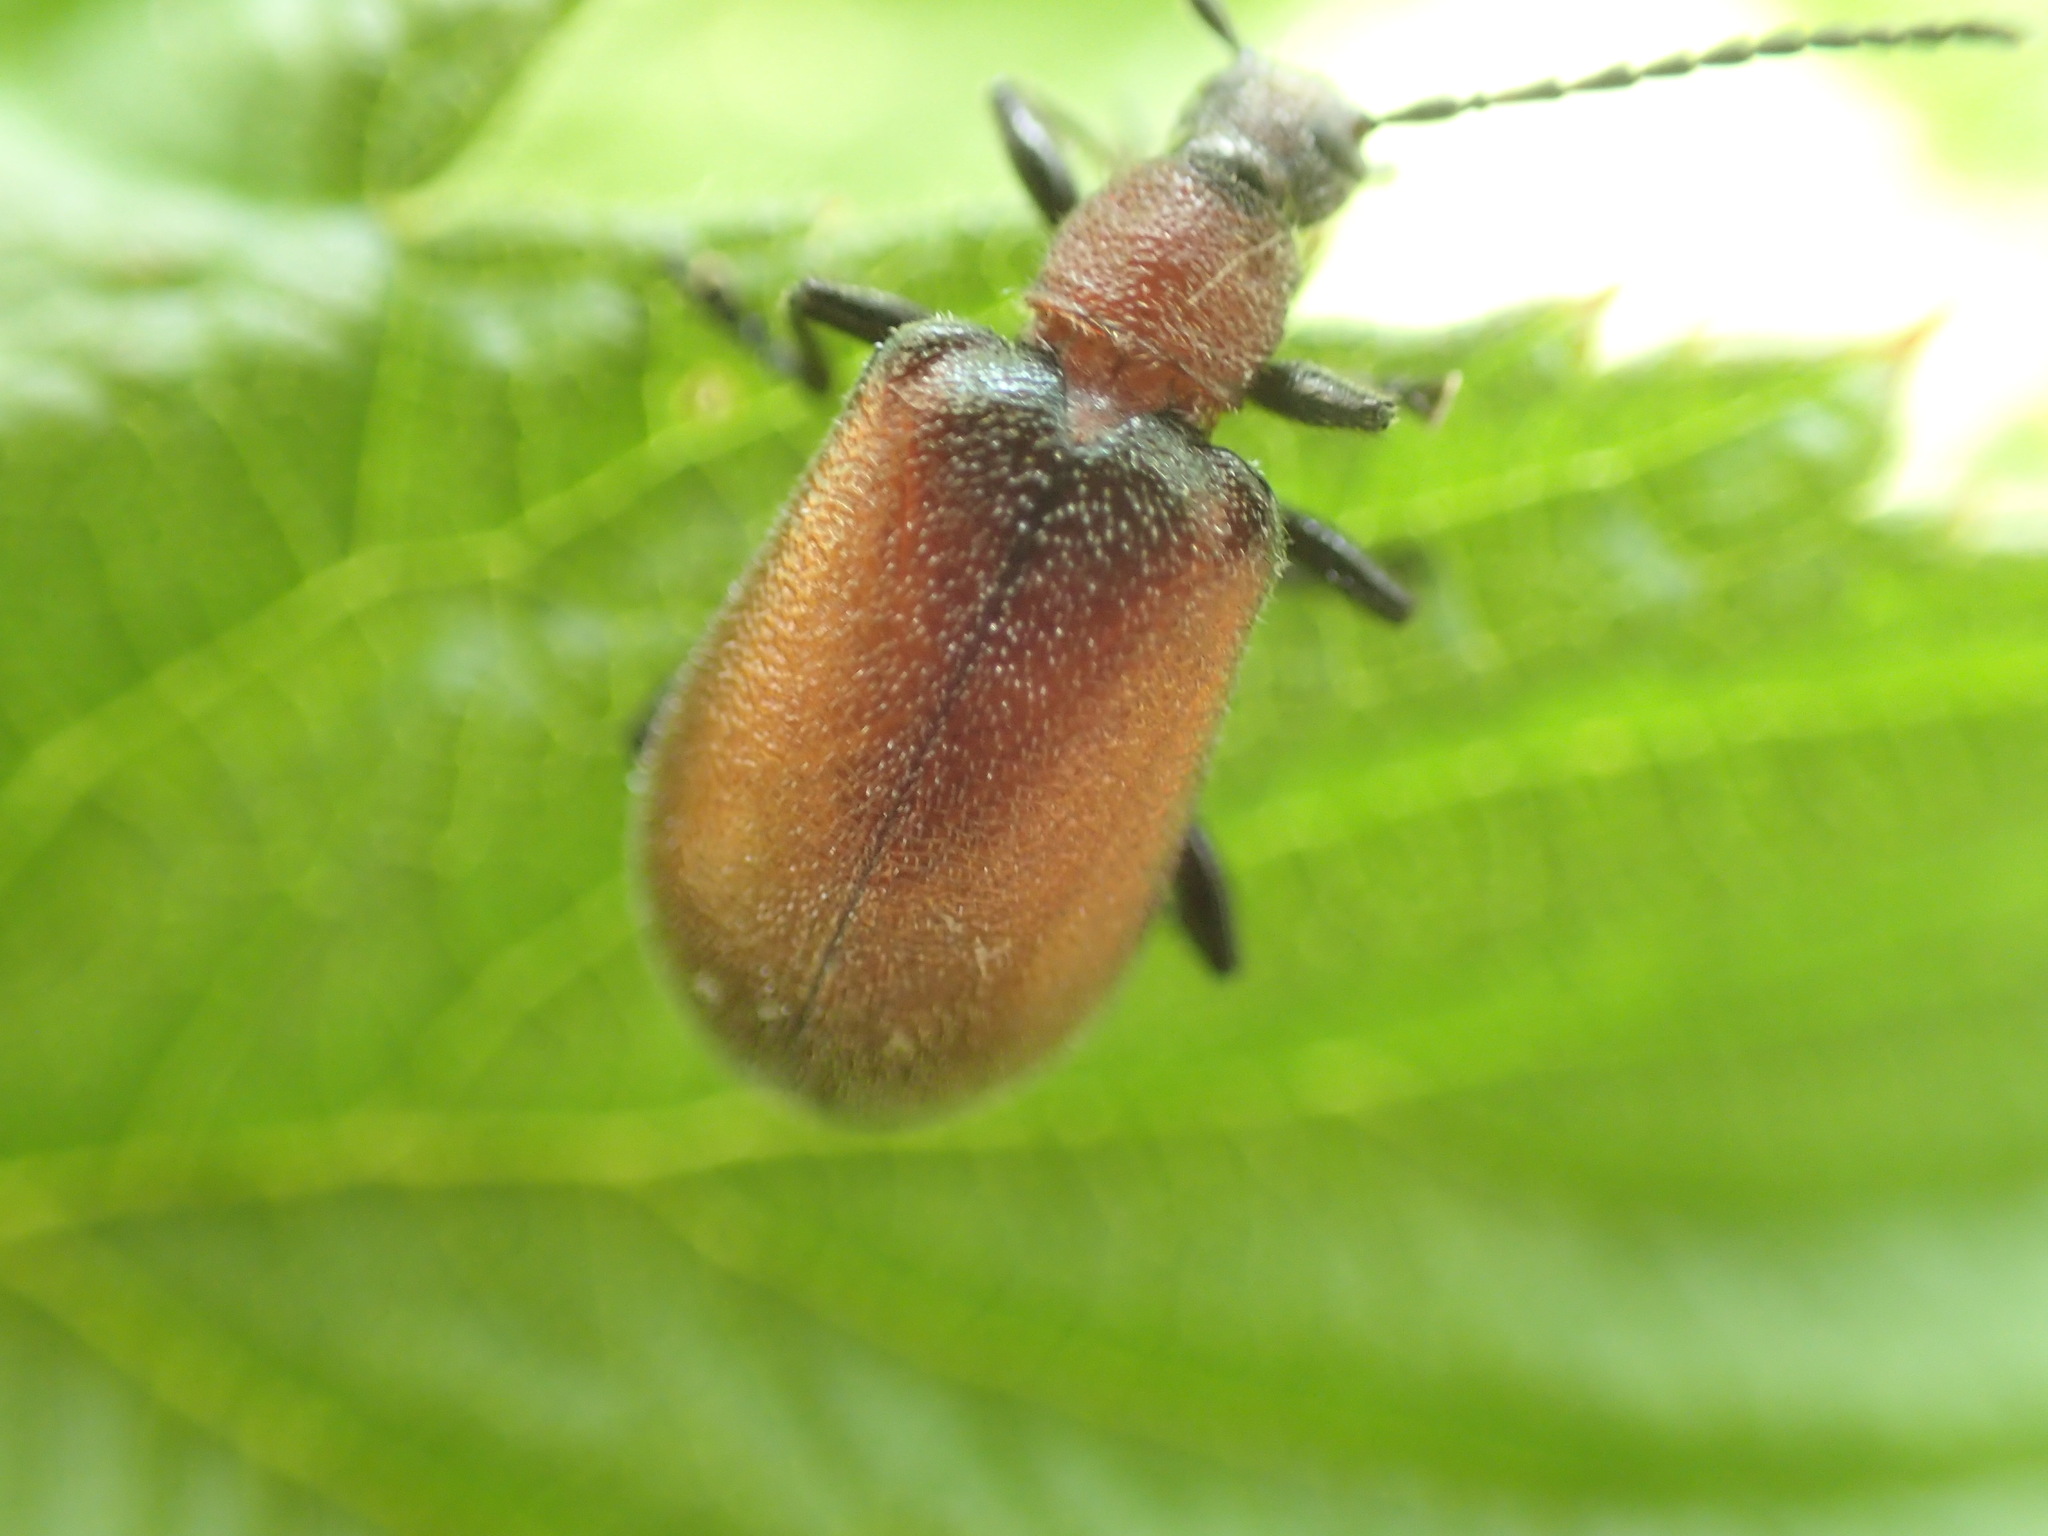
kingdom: Animalia
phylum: Arthropoda
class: Insecta
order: Coleoptera
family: Tenebrionidae
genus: Ecnolagria
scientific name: Ecnolagria
